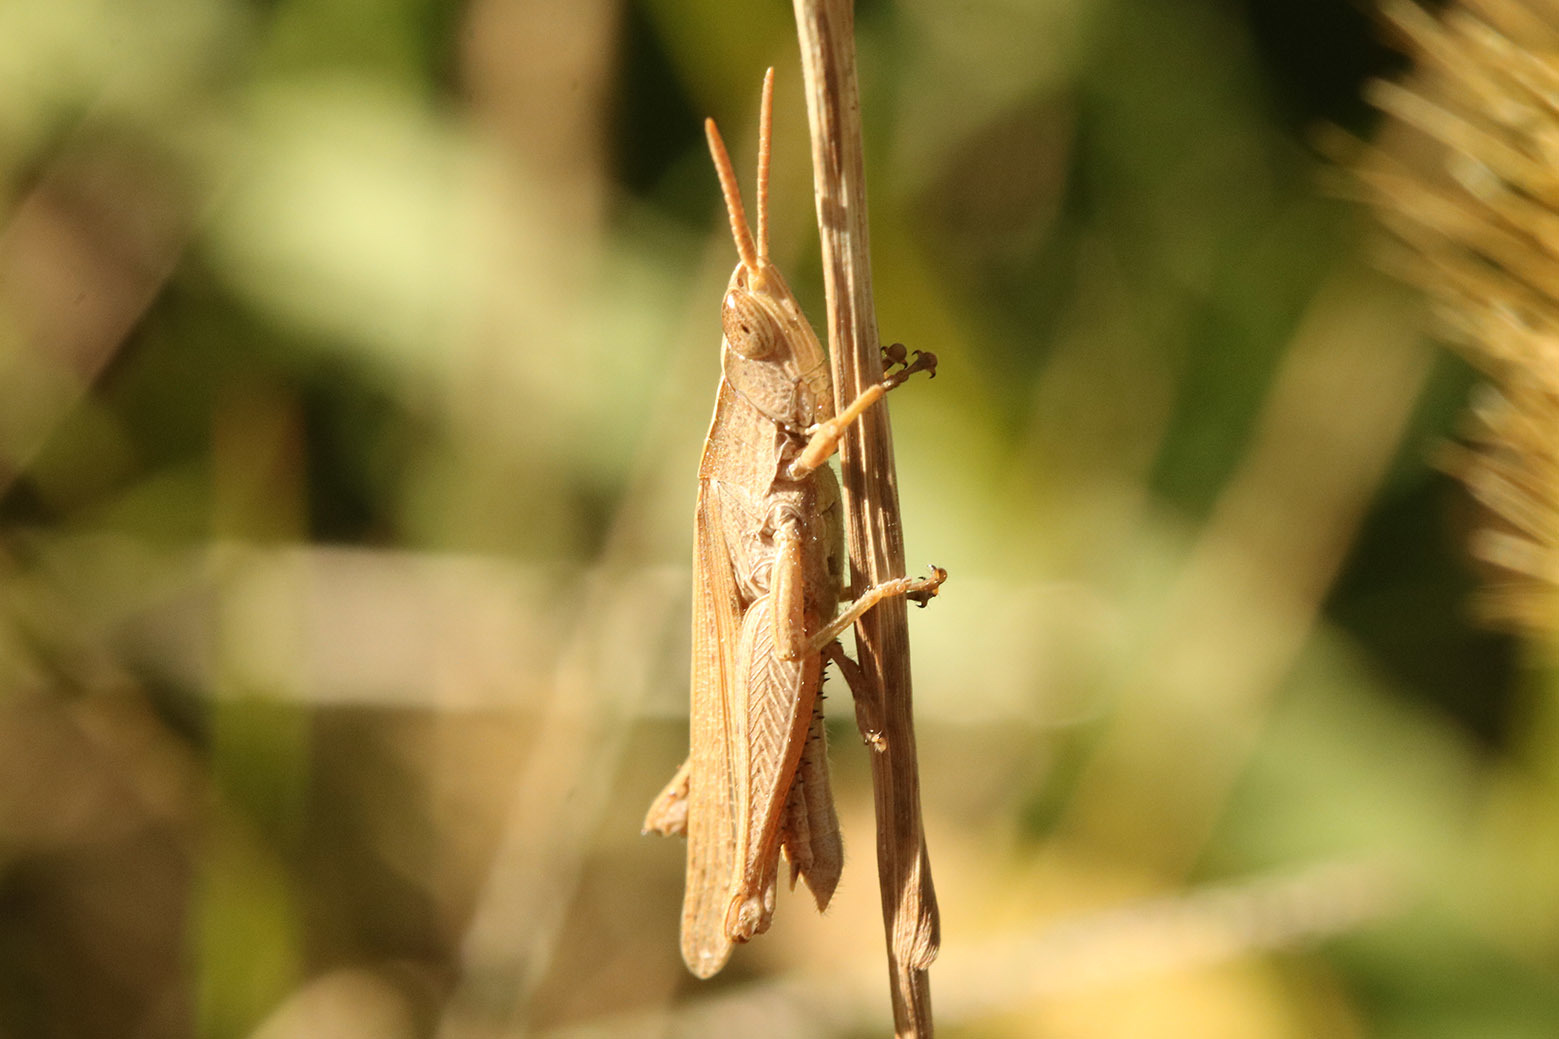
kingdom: Animalia
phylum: Arthropoda
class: Insecta
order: Orthoptera
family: Acrididae
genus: Laplatacris
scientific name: Laplatacris dispar
